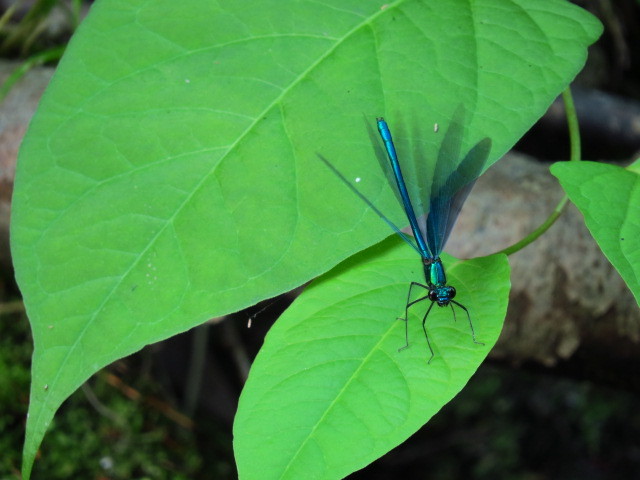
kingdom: Animalia
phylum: Arthropoda
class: Insecta
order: Odonata
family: Calopterygidae
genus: Calopteryx
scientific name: Calopteryx virgo
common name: Beautiful demoiselle
